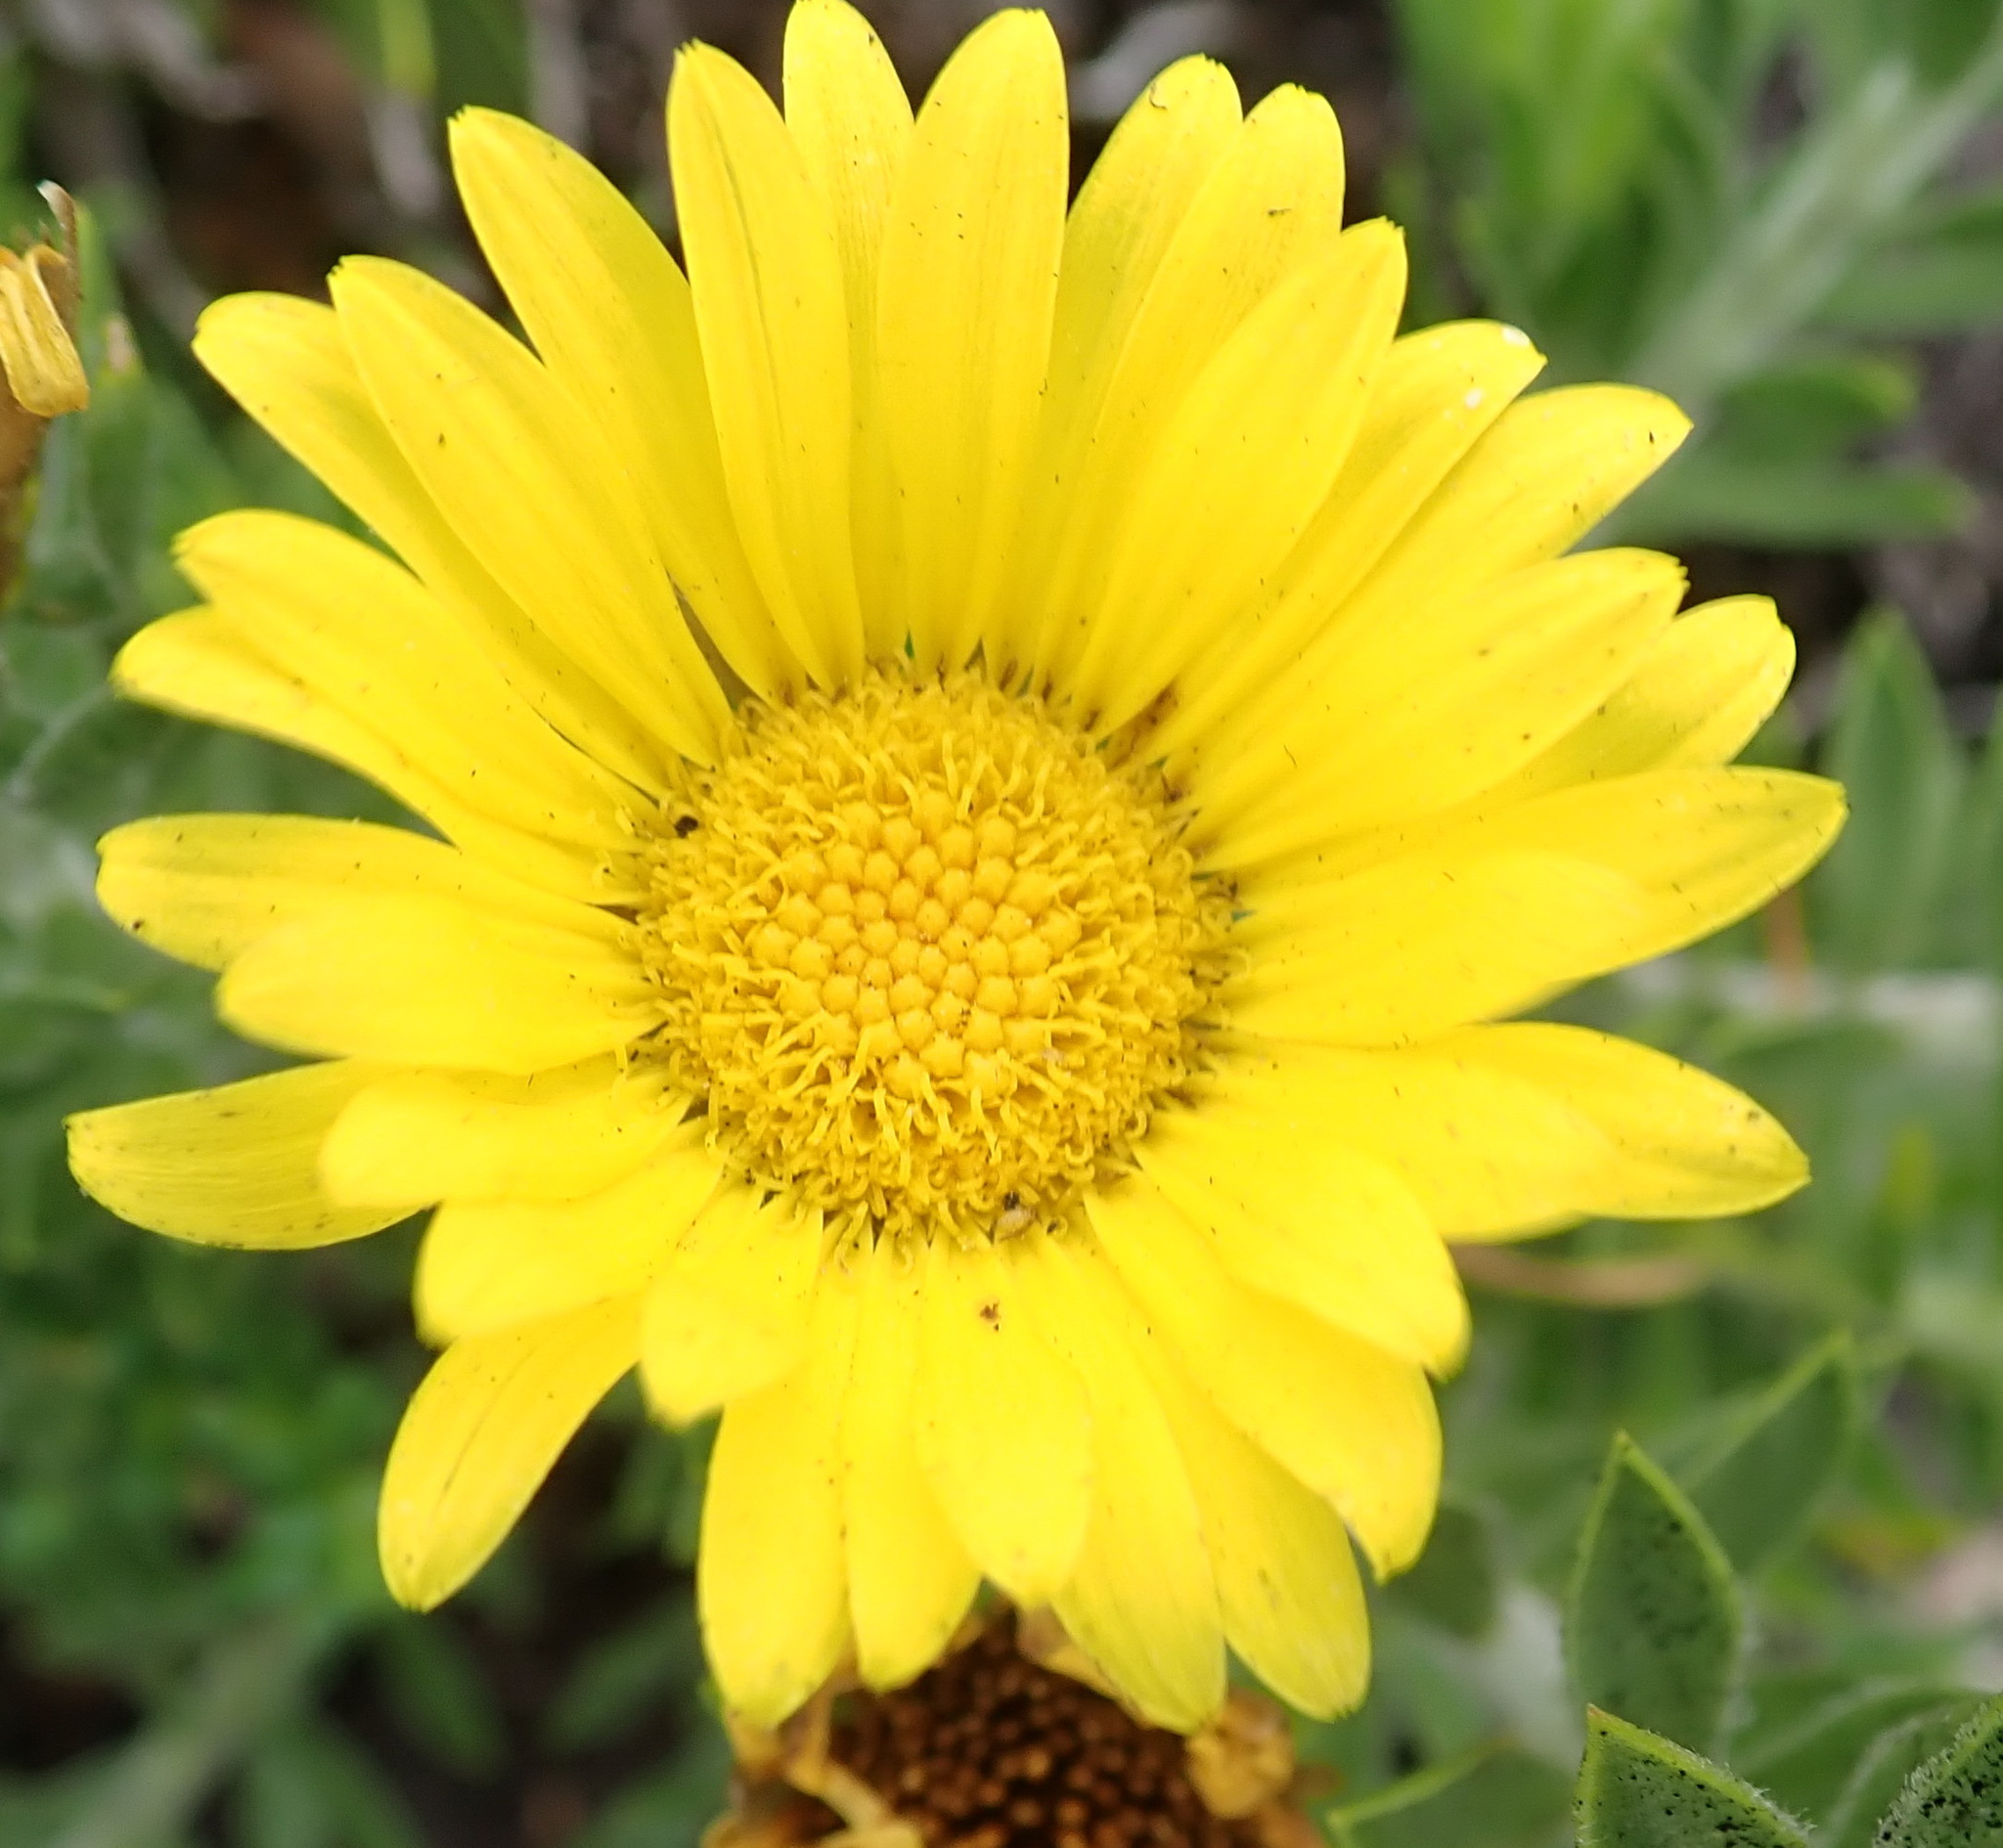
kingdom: Plantae
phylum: Tracheophyta
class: Magnoliopsida
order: Asterales
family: Asteraceae
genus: Oedera
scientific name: Oedera calycina
